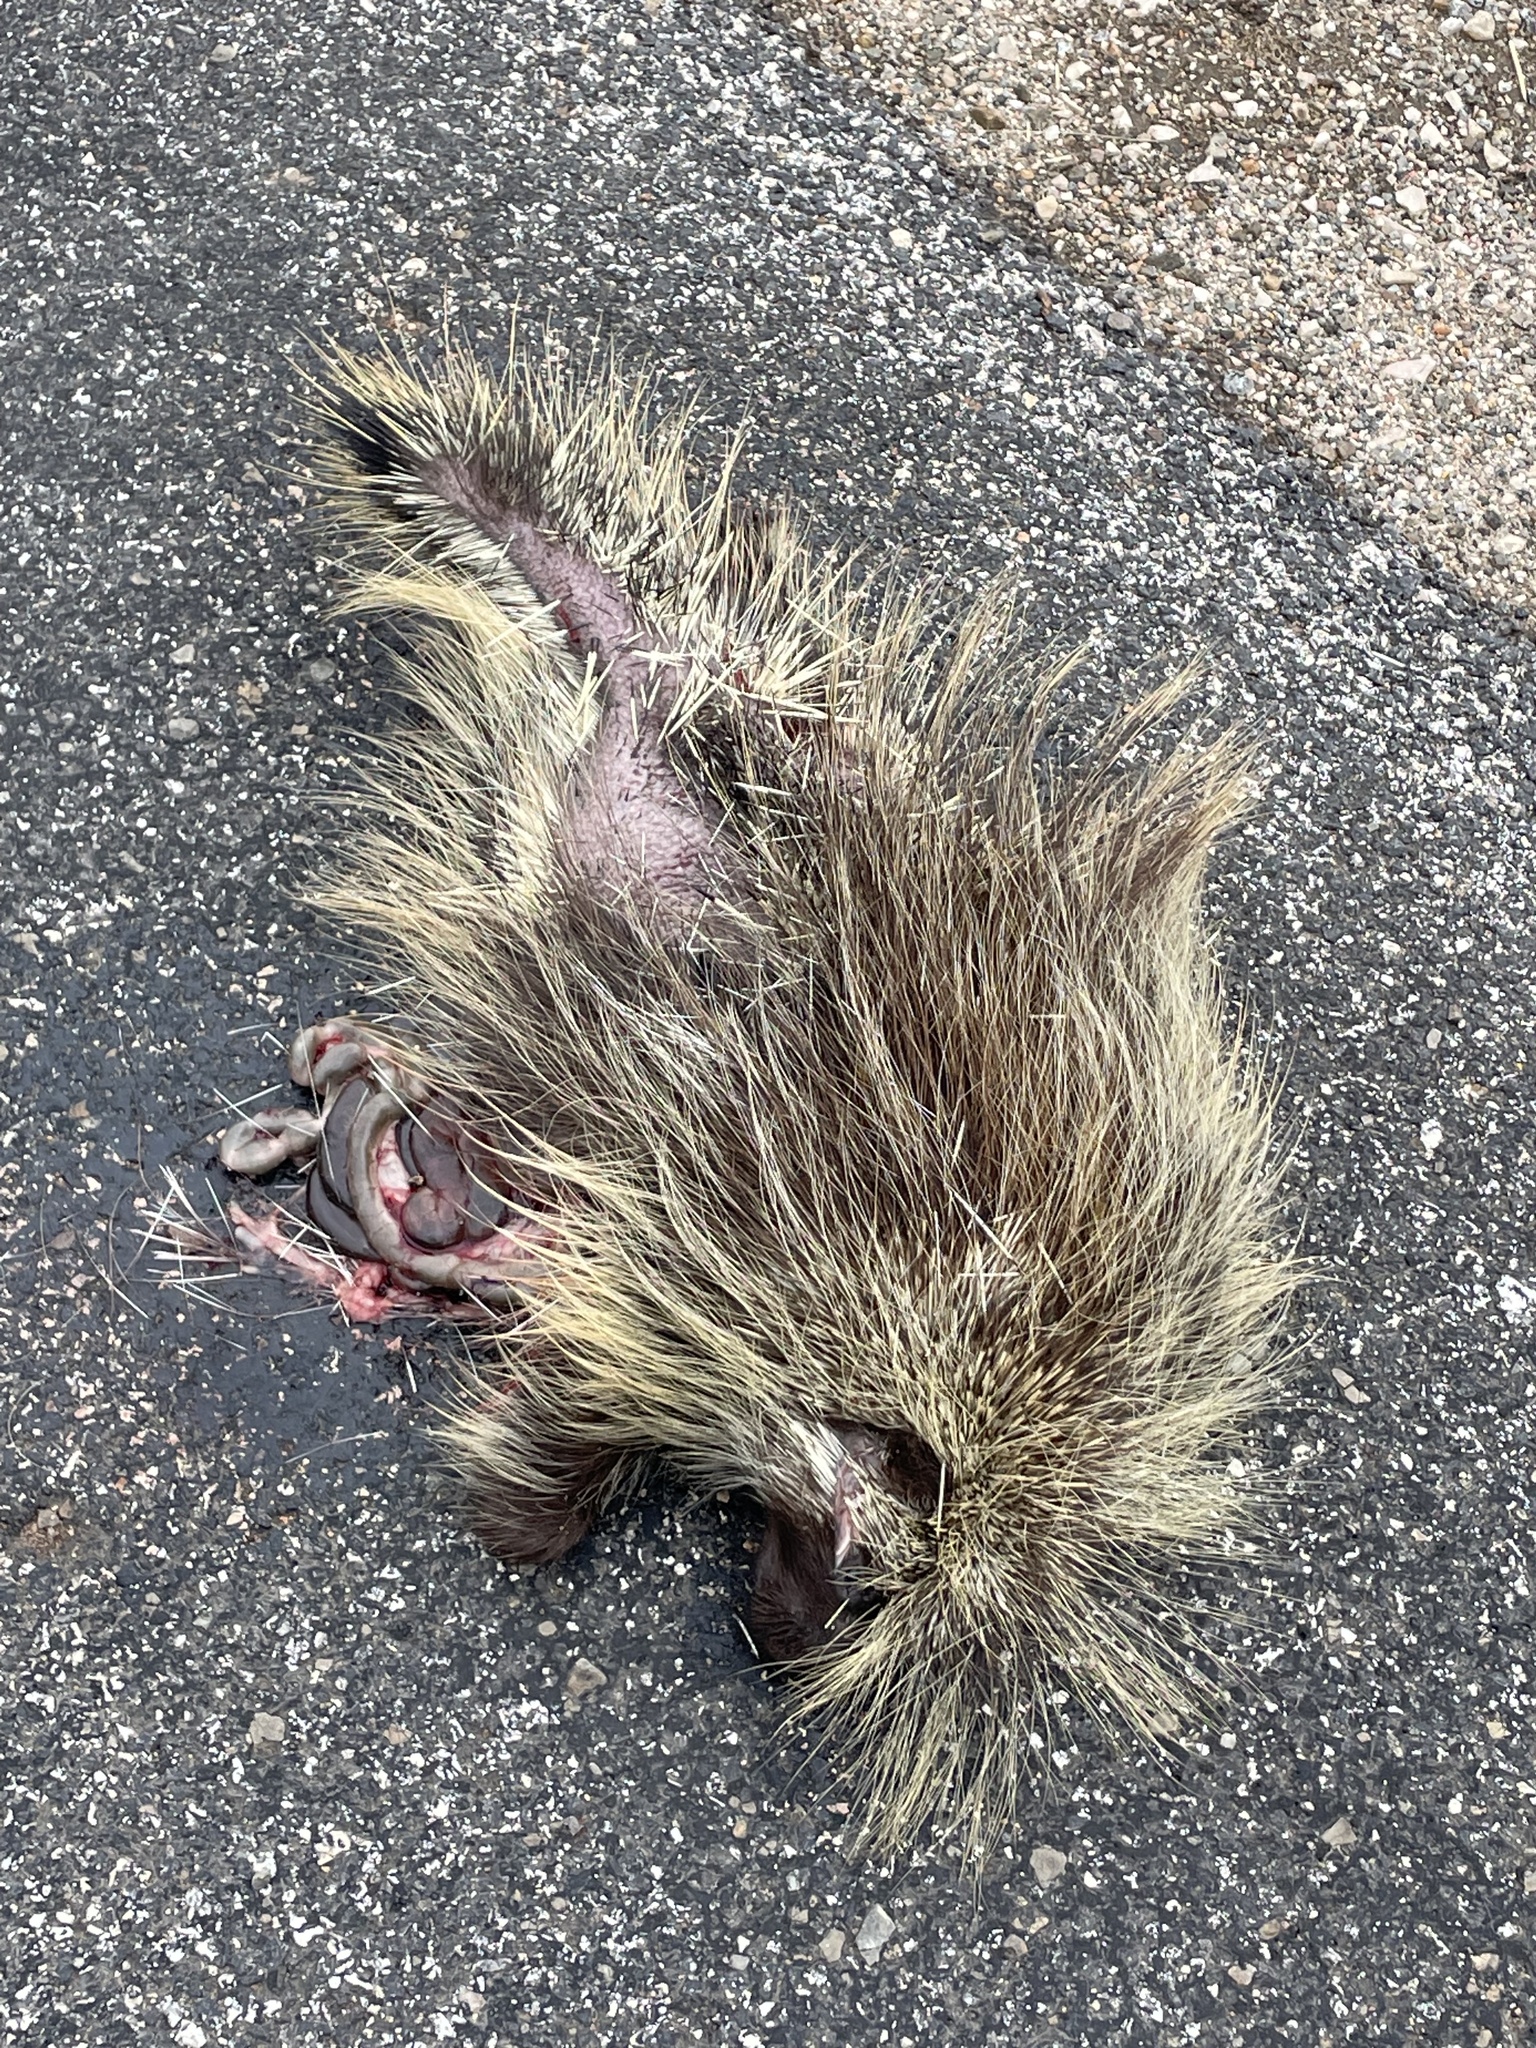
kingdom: Animalia
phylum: Chordata
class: Mammalia
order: Rodentia
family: Erethizontidae
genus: Erethizon
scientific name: Erethizon dorsatus
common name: North american porcupine
